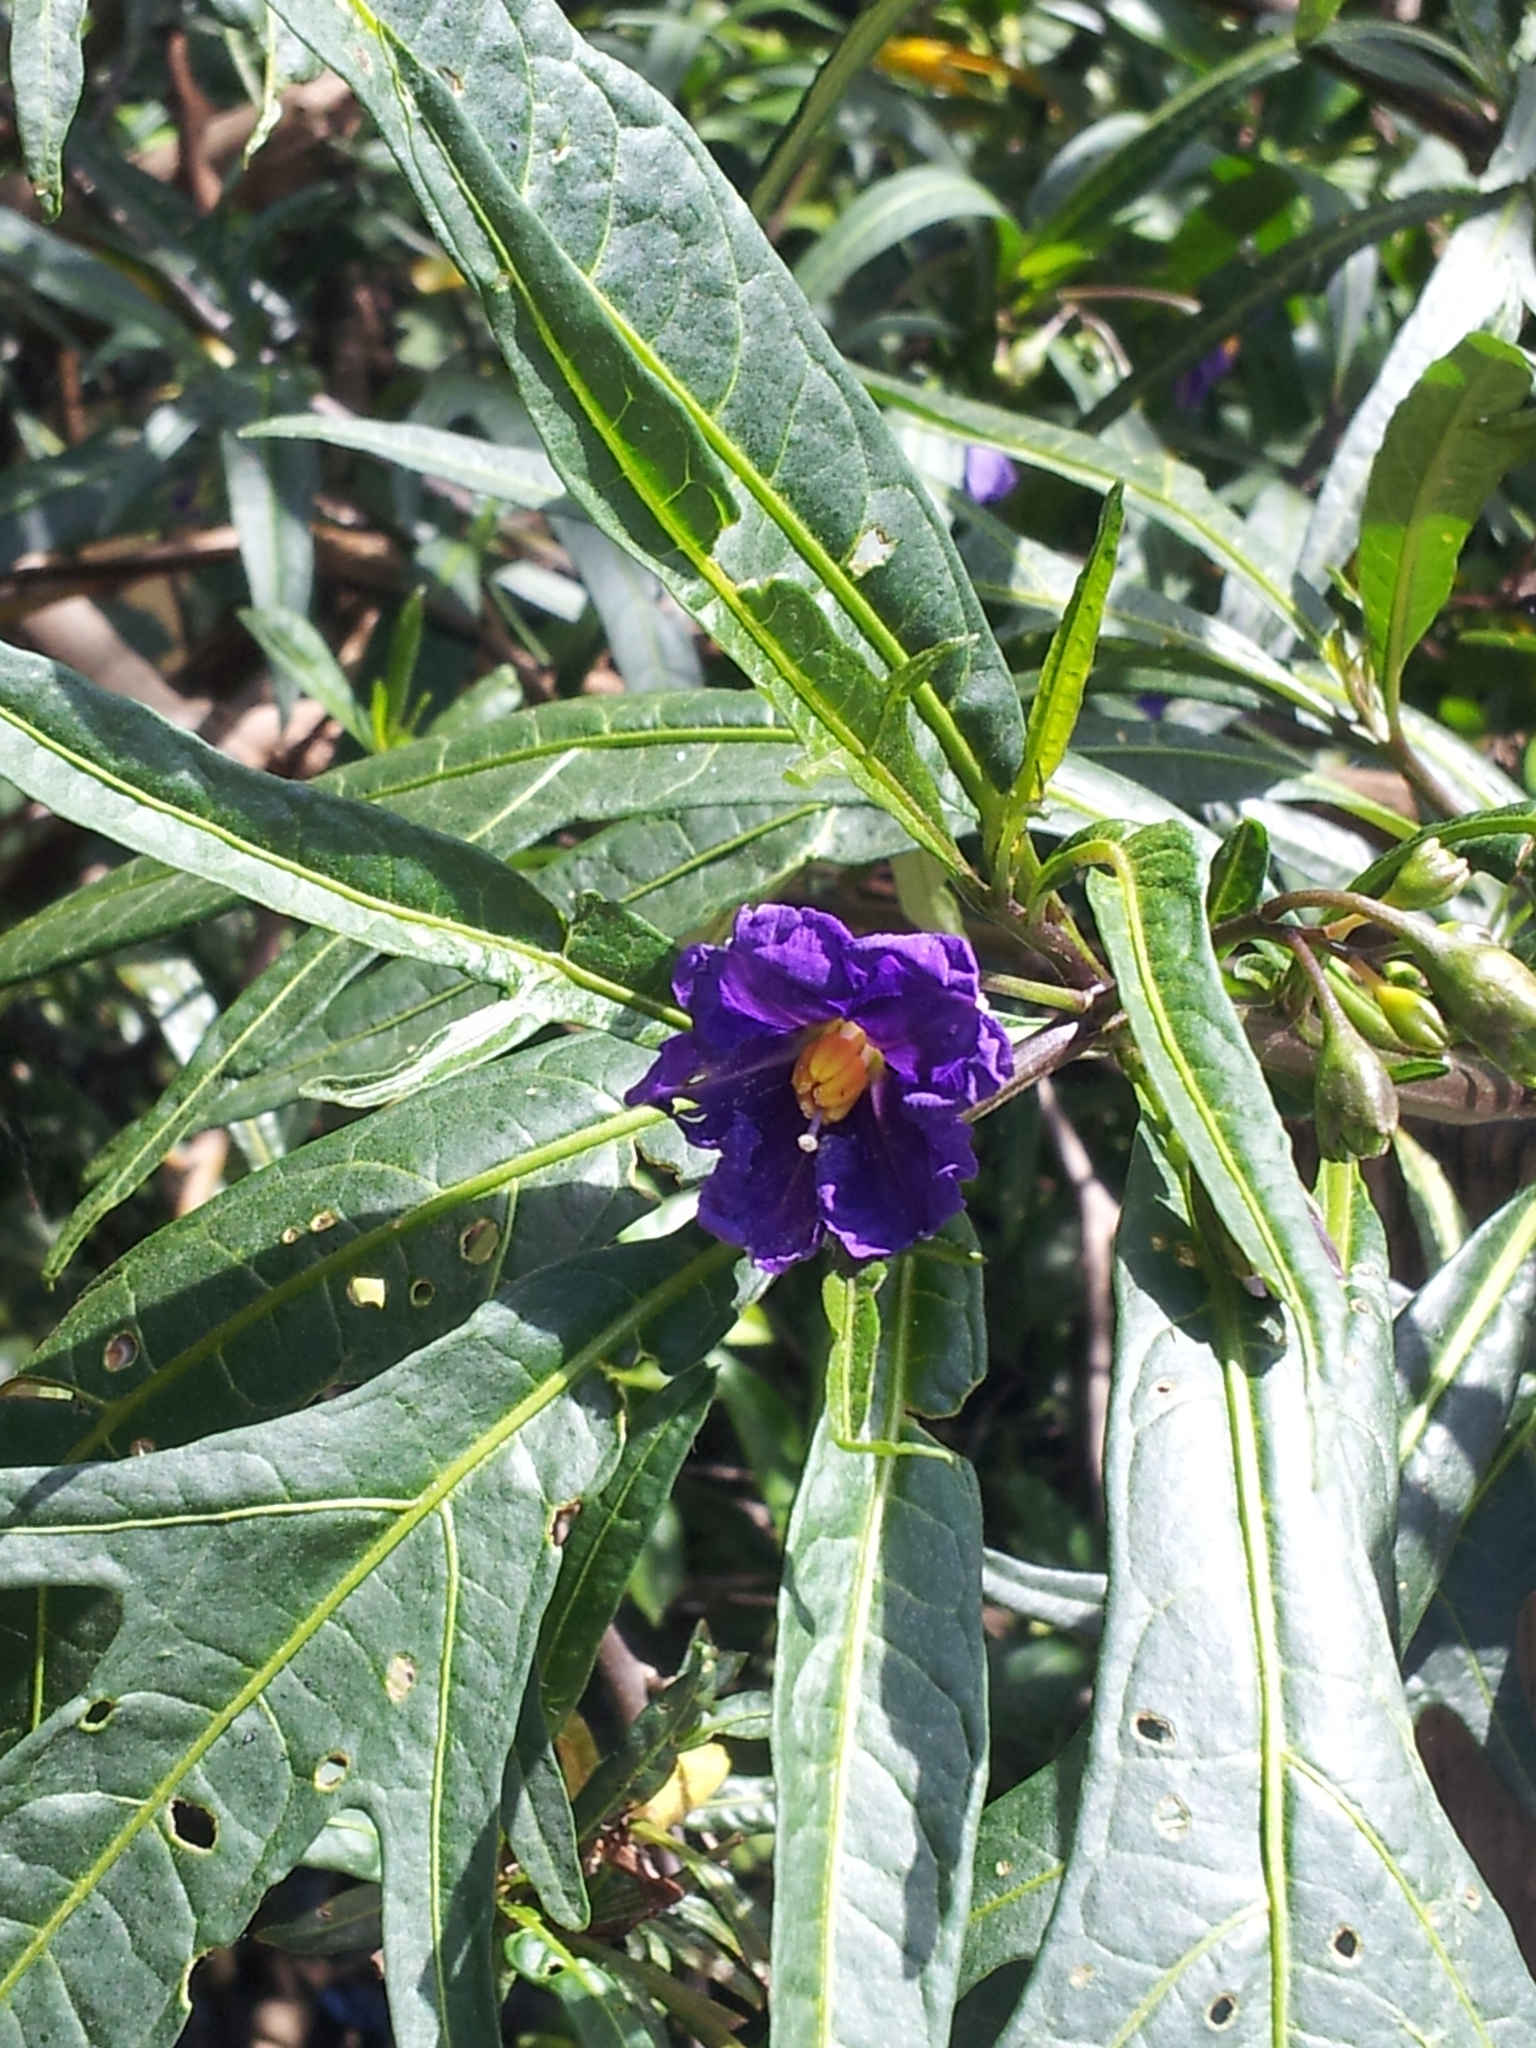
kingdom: Plantae
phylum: Tracheophyta
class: Magnoliopsida
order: Solanales
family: Solanaceae
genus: Solanum
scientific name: Solanum laciniatum
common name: Kangaroo-apple
